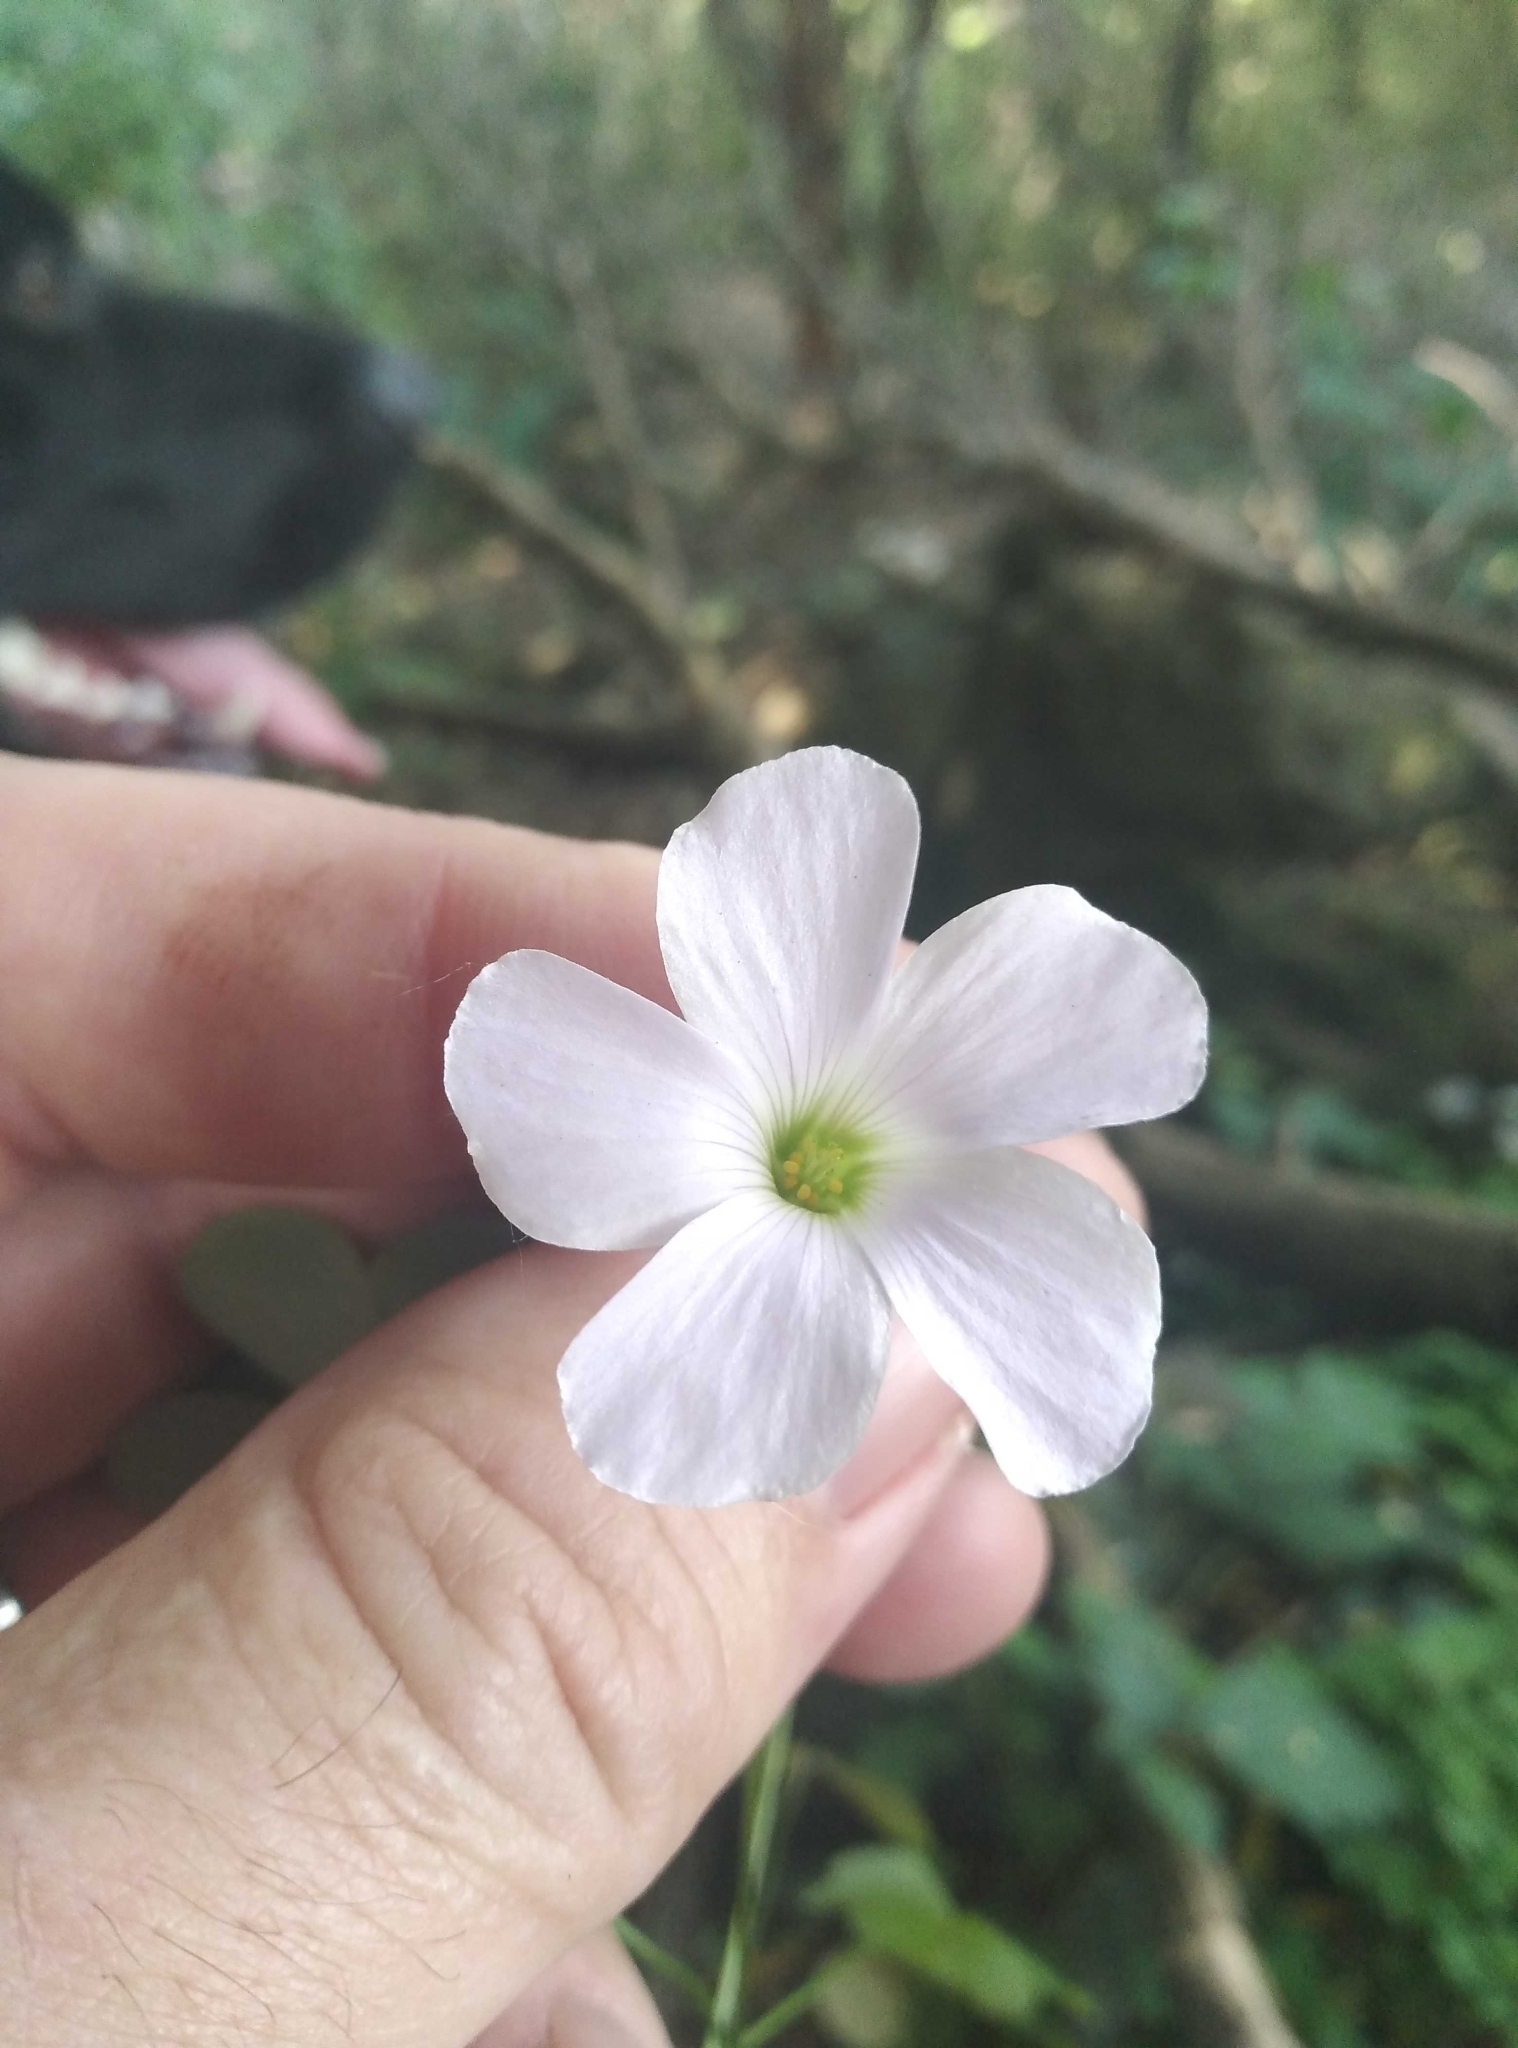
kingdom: Plantae
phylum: Tracheophyta
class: Magnoliopsida
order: Oxalidales
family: Oxalidaceae
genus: Oxalis
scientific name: Oxalis incarnata
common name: Pale pink-sorrel
